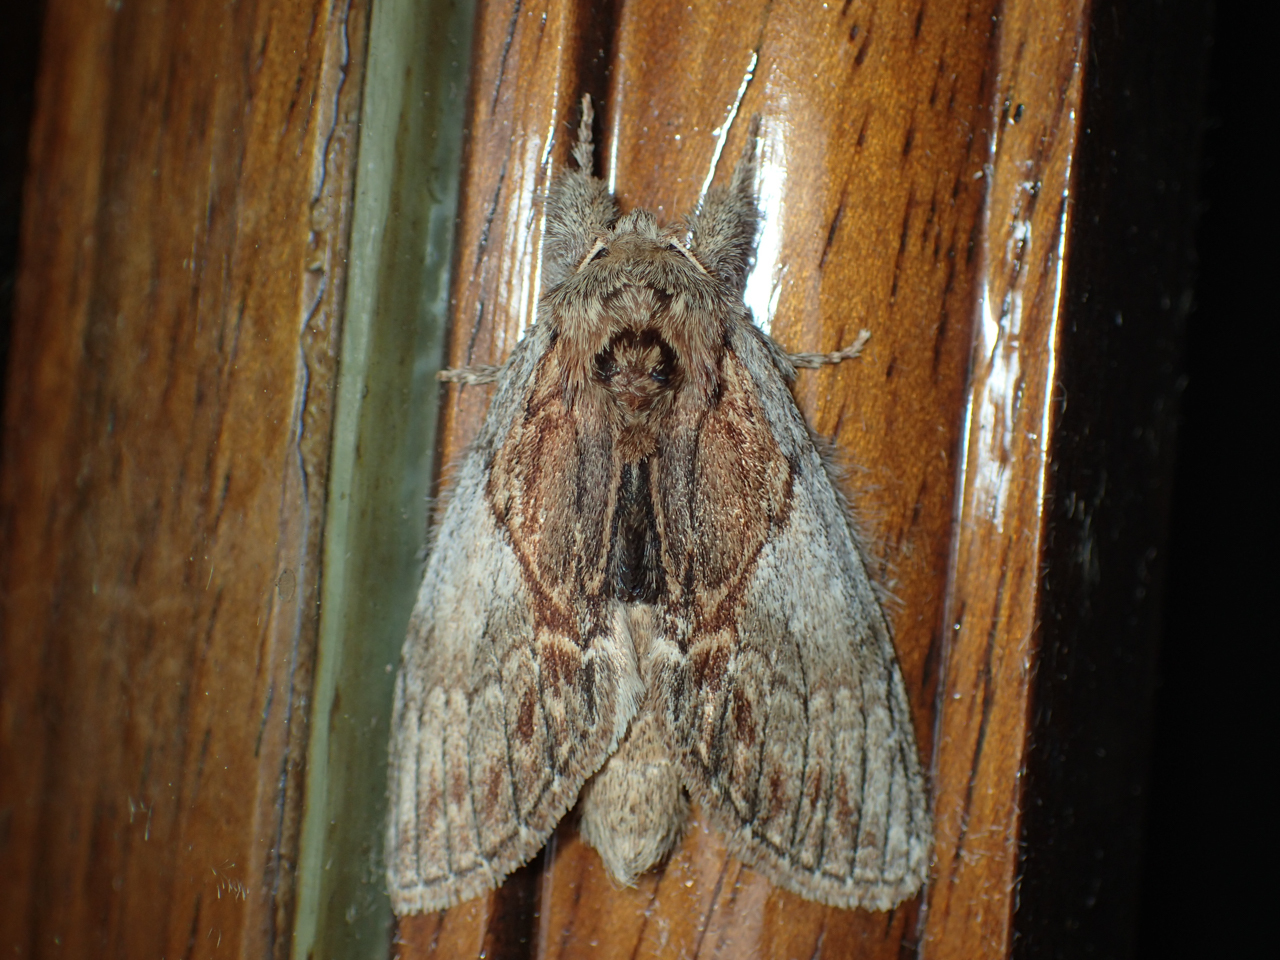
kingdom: Animalia
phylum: Arthropoda
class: Insecta
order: Lepidoptera
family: Notodontidae
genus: Peridea
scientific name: Peridea basitriens
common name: Oval-based prominent
